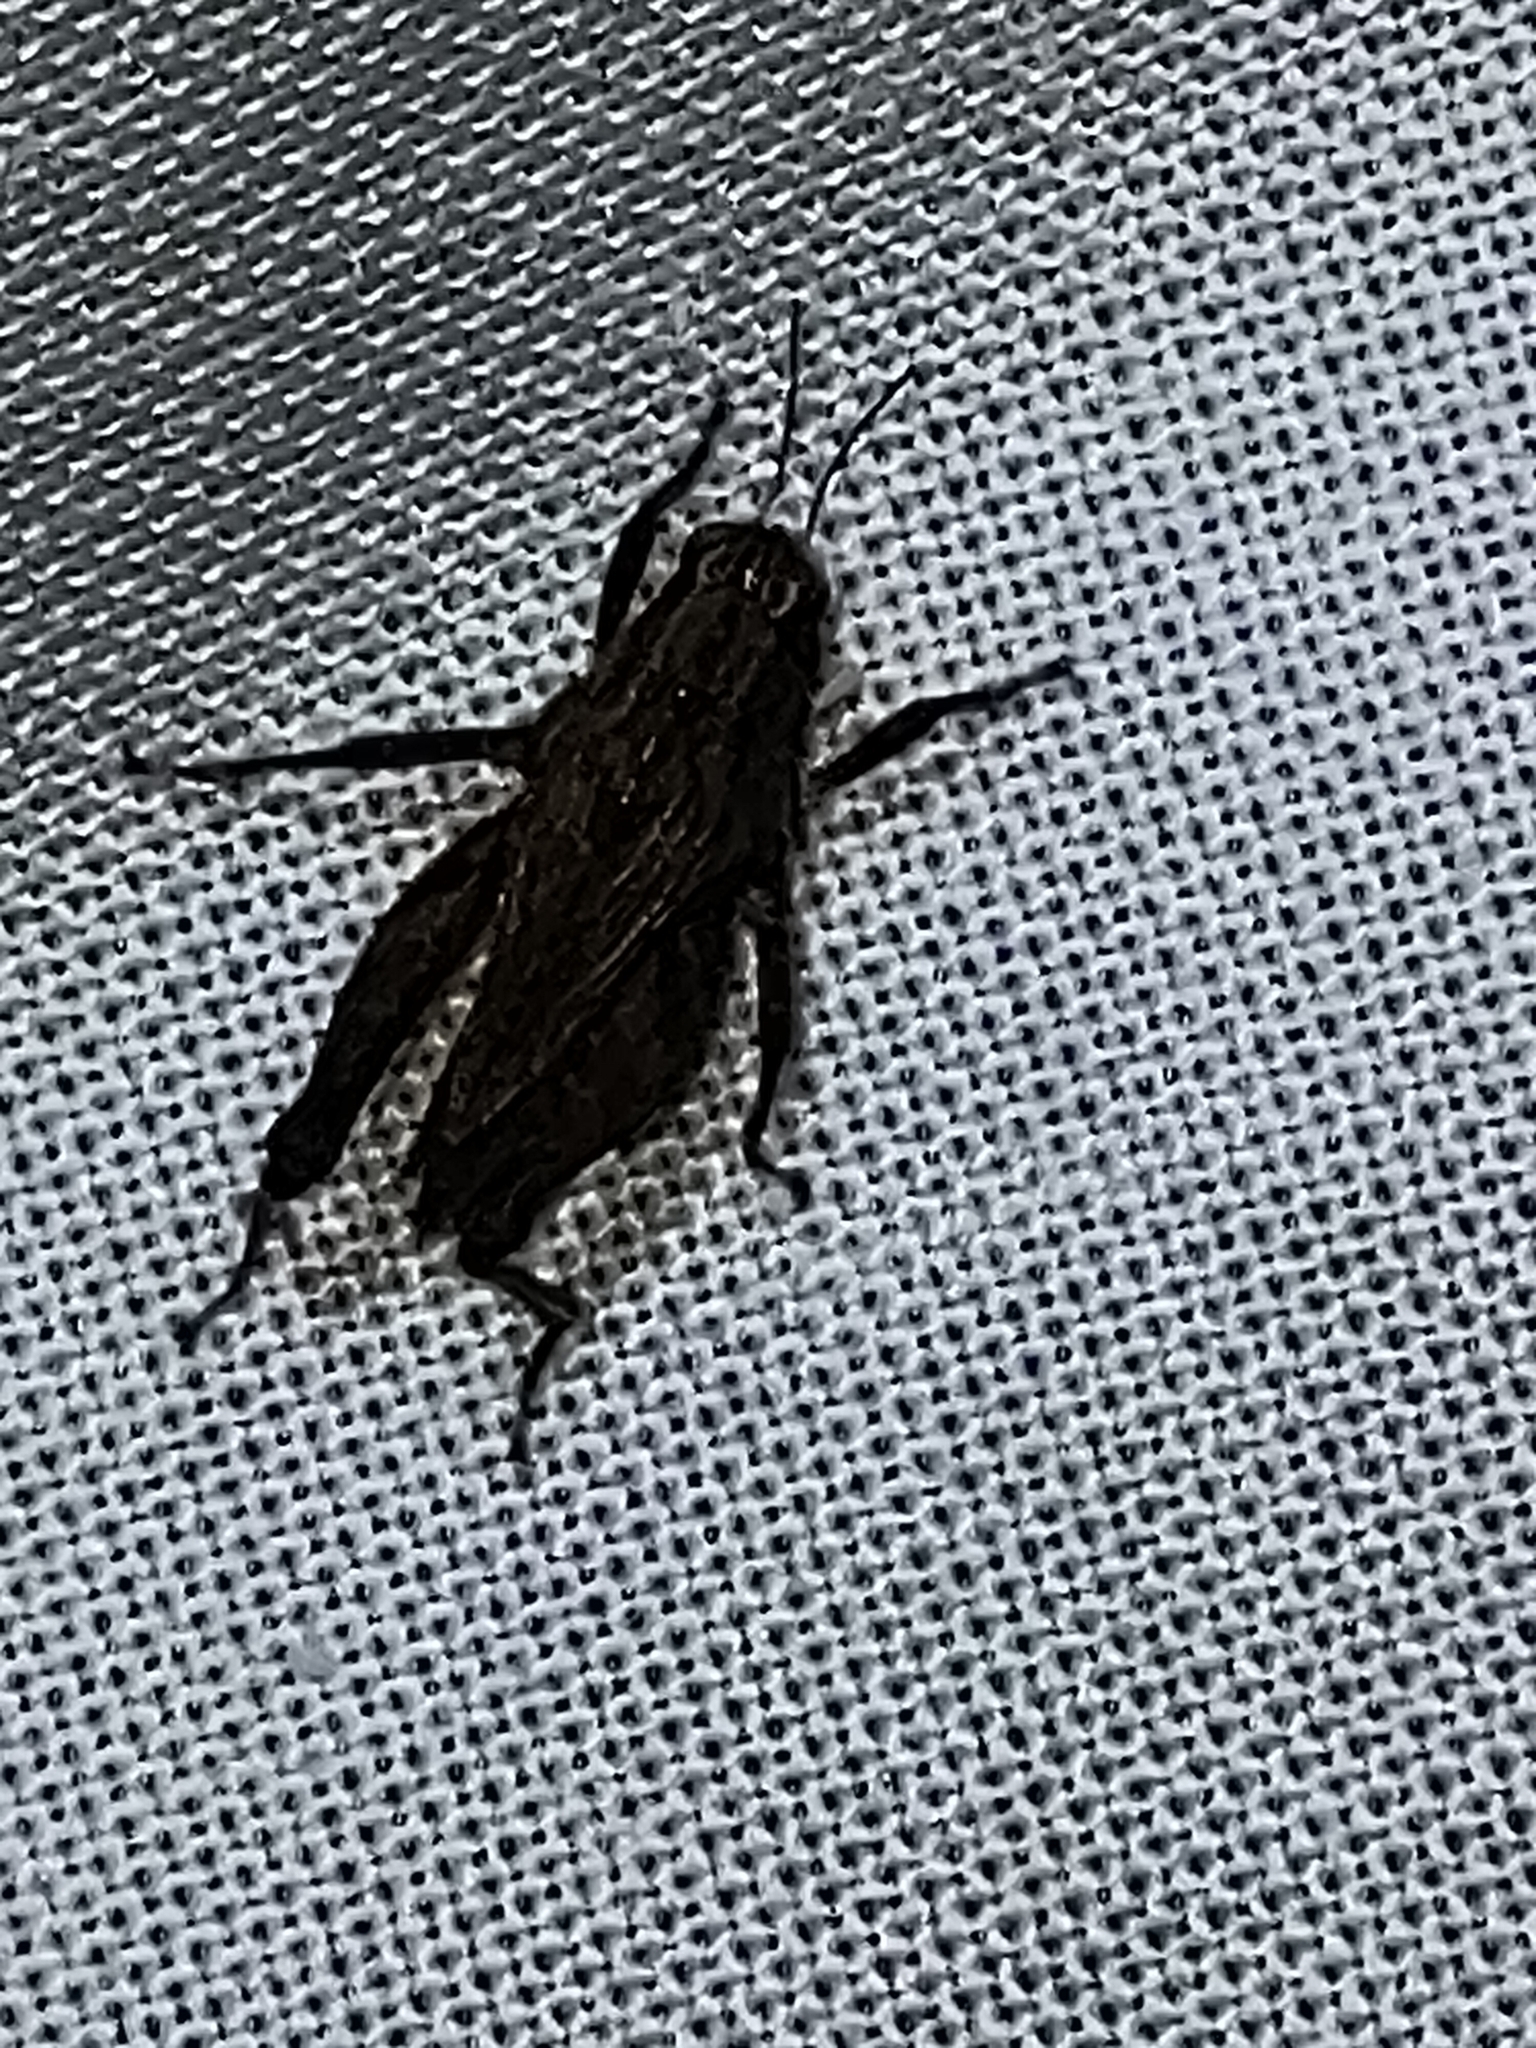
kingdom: Animalia
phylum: Arthropoda
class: Insecta
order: Orthoptera
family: Tetrigidae
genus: Tettigidea
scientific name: Tettigidea
